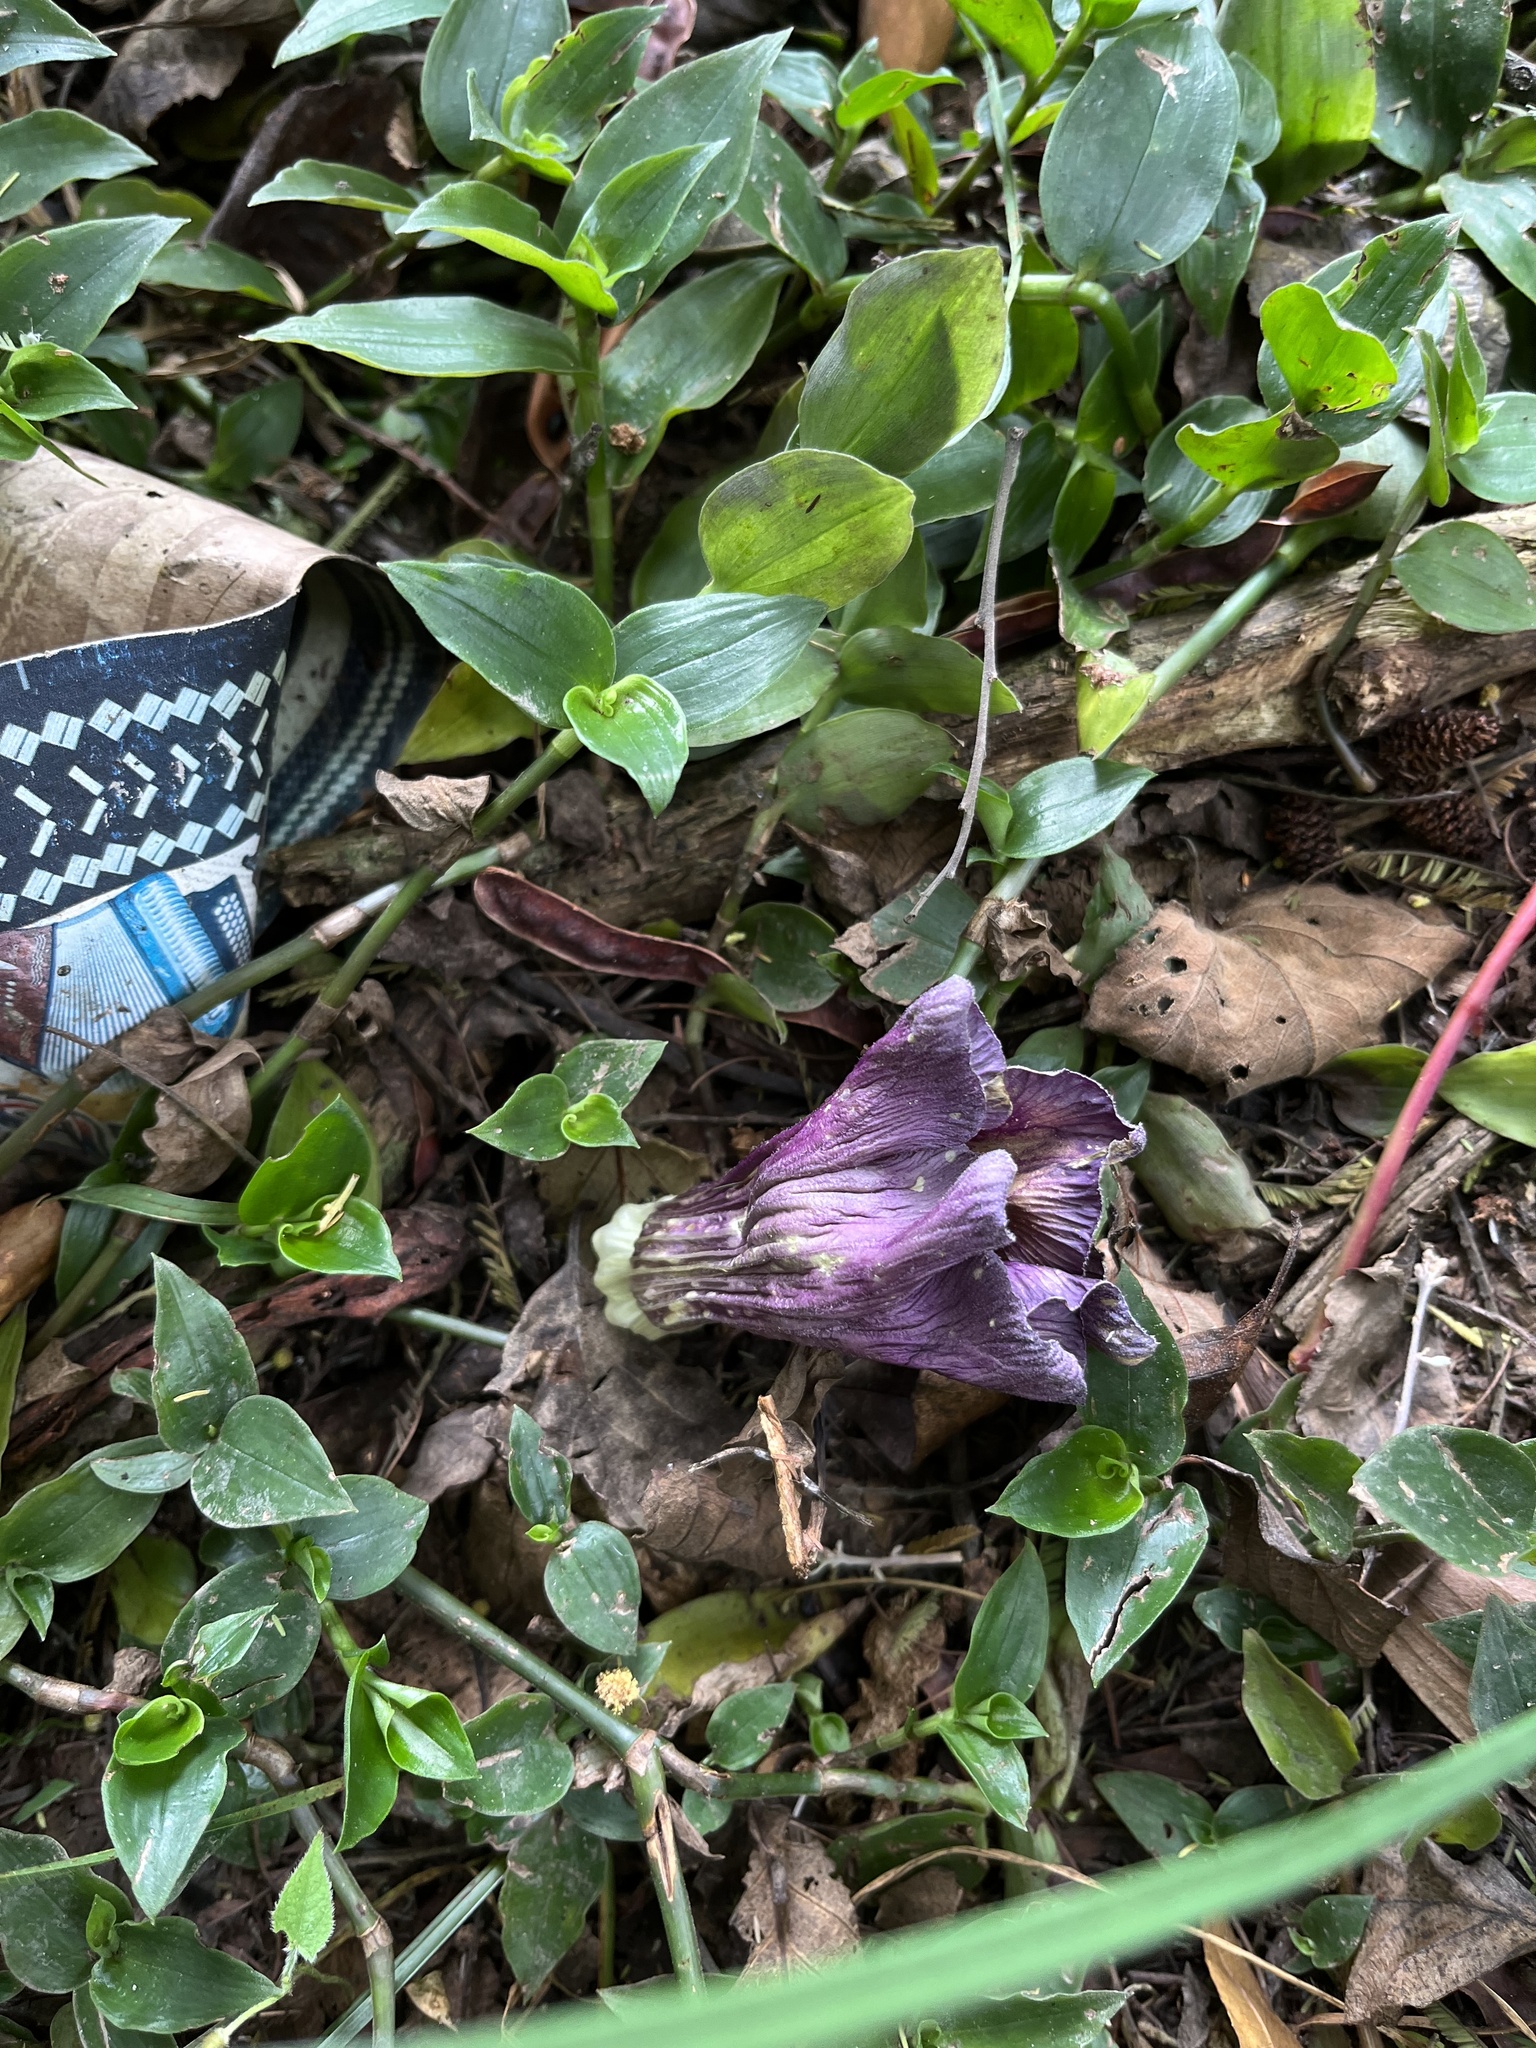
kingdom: Plantae
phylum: Tracheophyta
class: Magnoliopsida
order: Ericales
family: Polemoniaceae
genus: Cobaea
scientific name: Cobaea scandens
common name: Cup-and-saucer-vine
